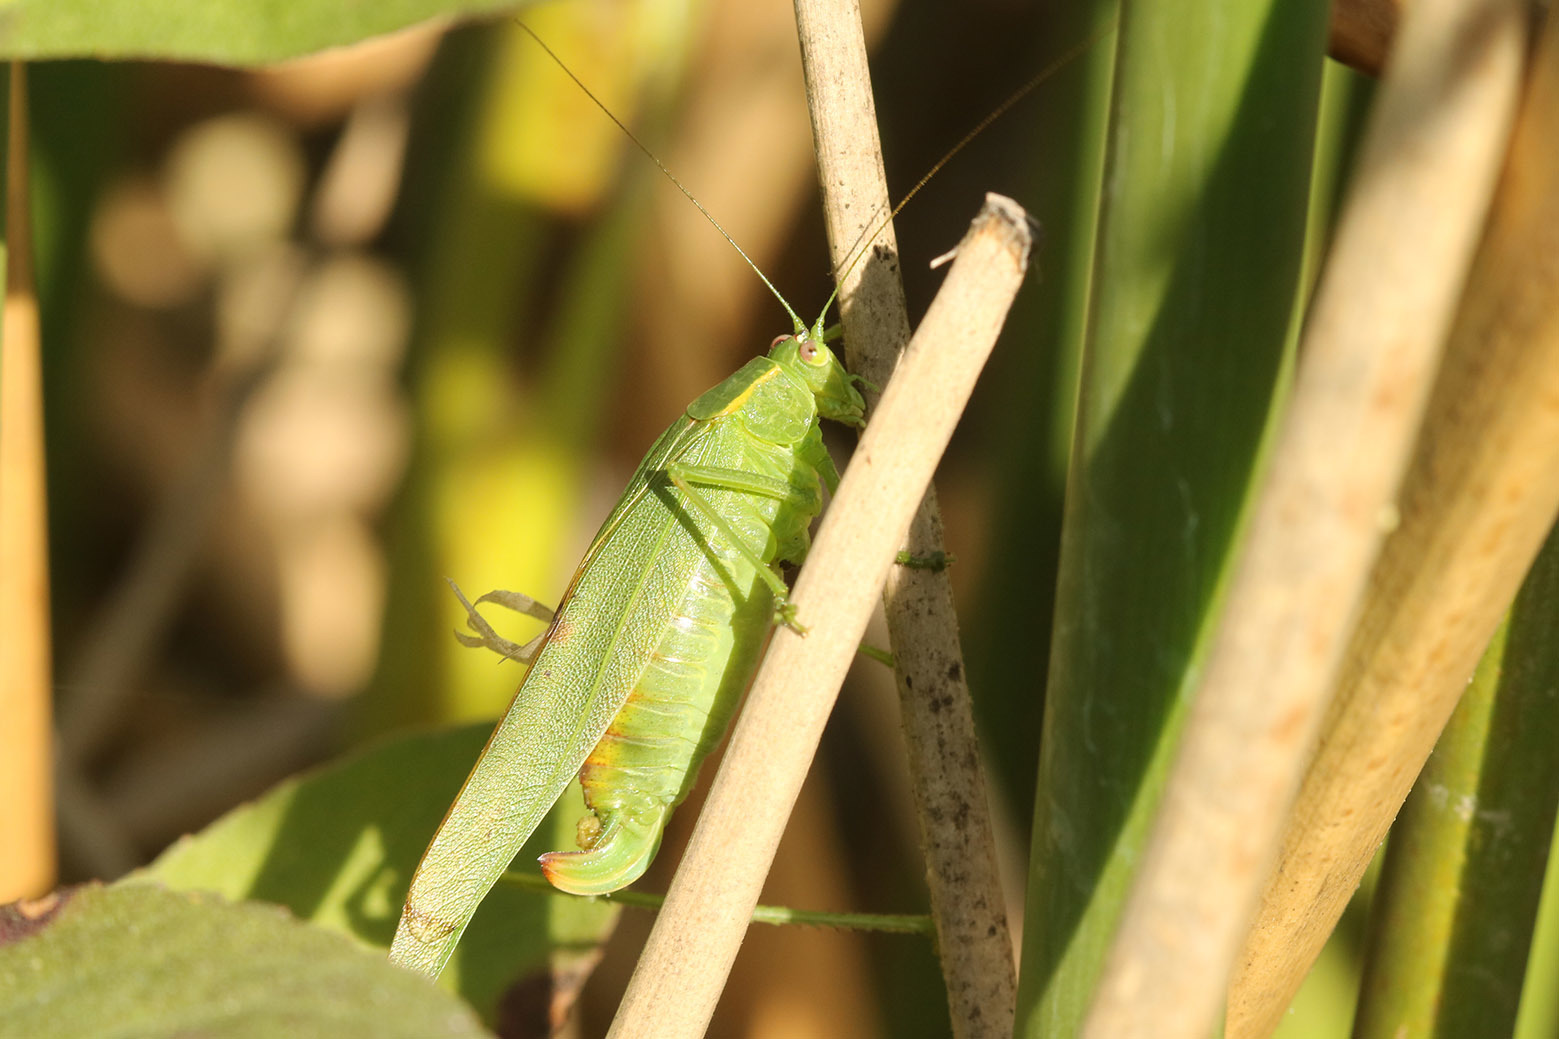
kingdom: Animalia
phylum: Arthropoda
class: Insecta
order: Orthoptera
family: Tettigoniidae
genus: Ligocatinus
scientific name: Ligocatinus spinatus
